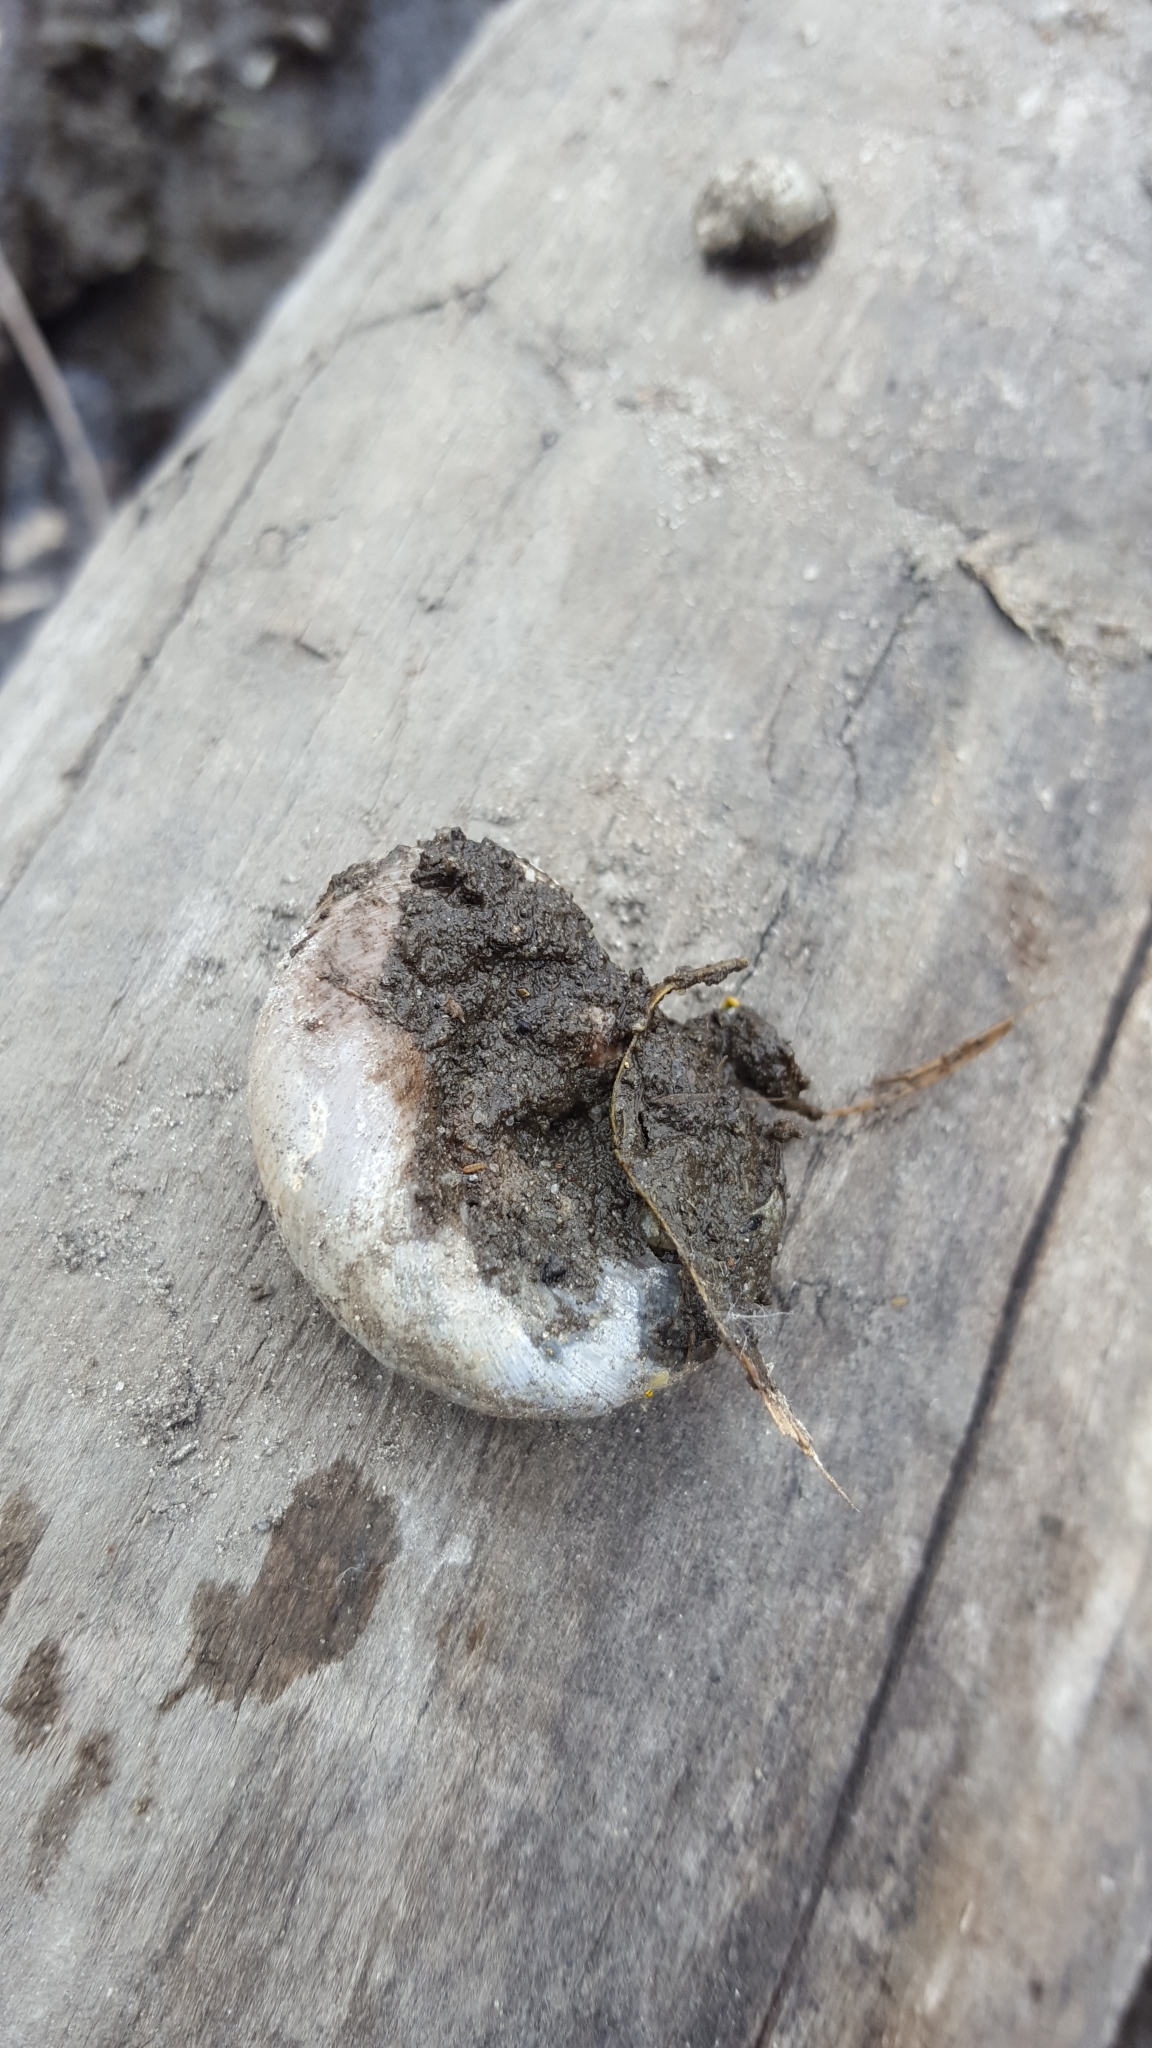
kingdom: Animalia
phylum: Mollusca
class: Gastropoda
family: Planorbidae
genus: Planorbarius
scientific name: Planorbarius corneus
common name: Great ramshorn
